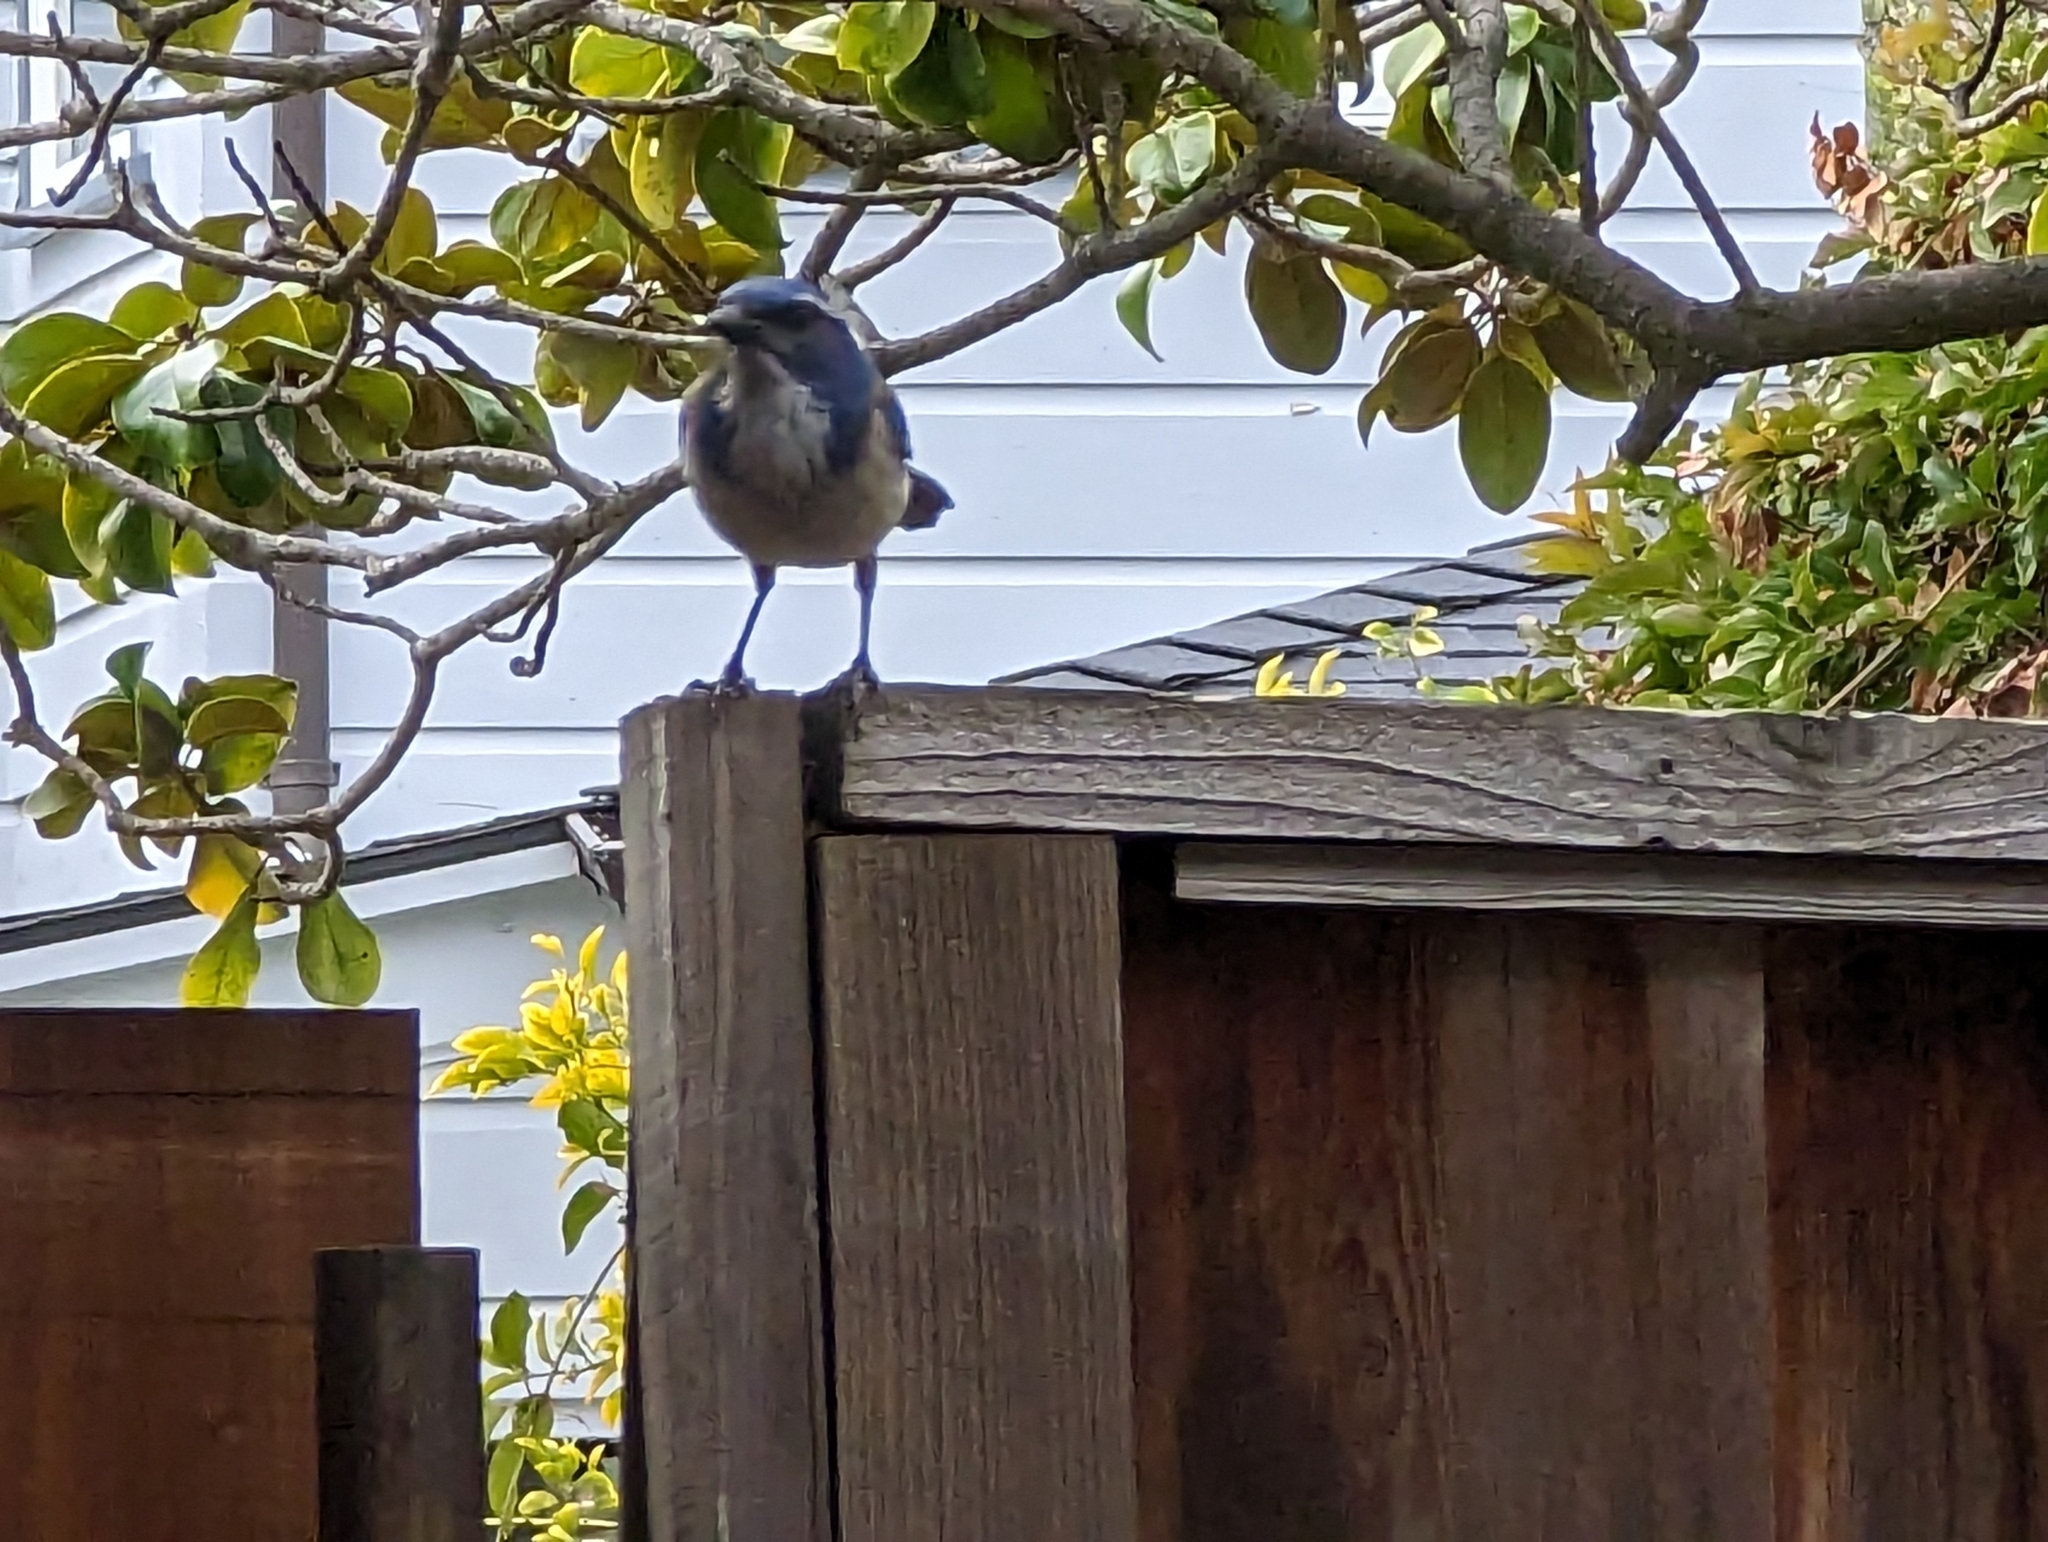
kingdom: Animalia
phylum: Chordata
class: Aves
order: Passeriformes
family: Corvidae
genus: Aphelocoma
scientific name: Aphelocoma californica
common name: California scrub-jay
